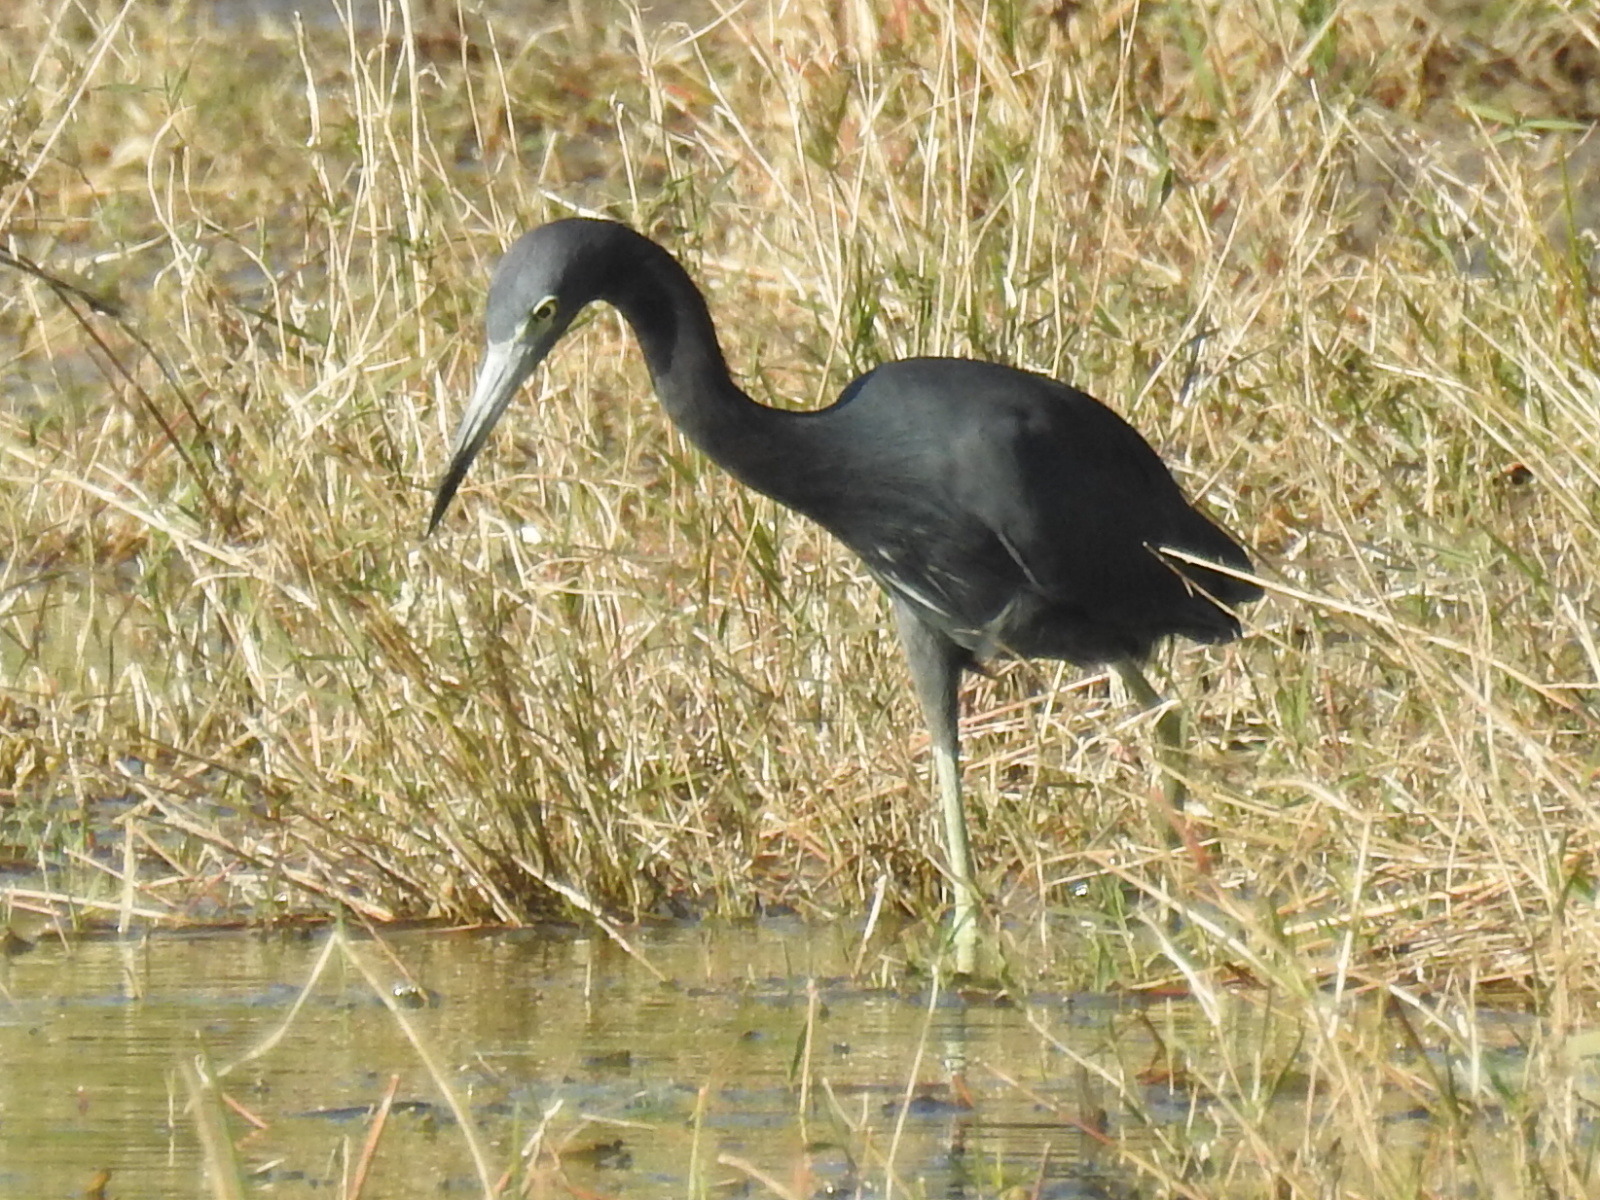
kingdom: Animalia
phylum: Chordata
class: Aves
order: Pelecaniformes
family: Ardeidae
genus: Egretta
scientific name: Egretta caerulea
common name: Little blue heron
